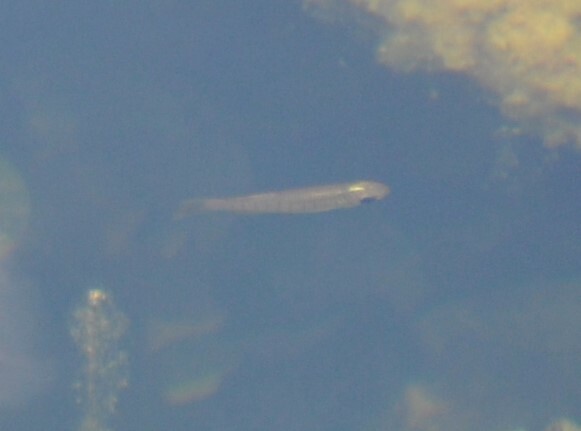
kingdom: Animalia
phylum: Chordata
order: Cyprinodontiformes
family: Fundulidae
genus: Fundulus
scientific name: Fundulus lineolatus
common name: Lined topminnow
